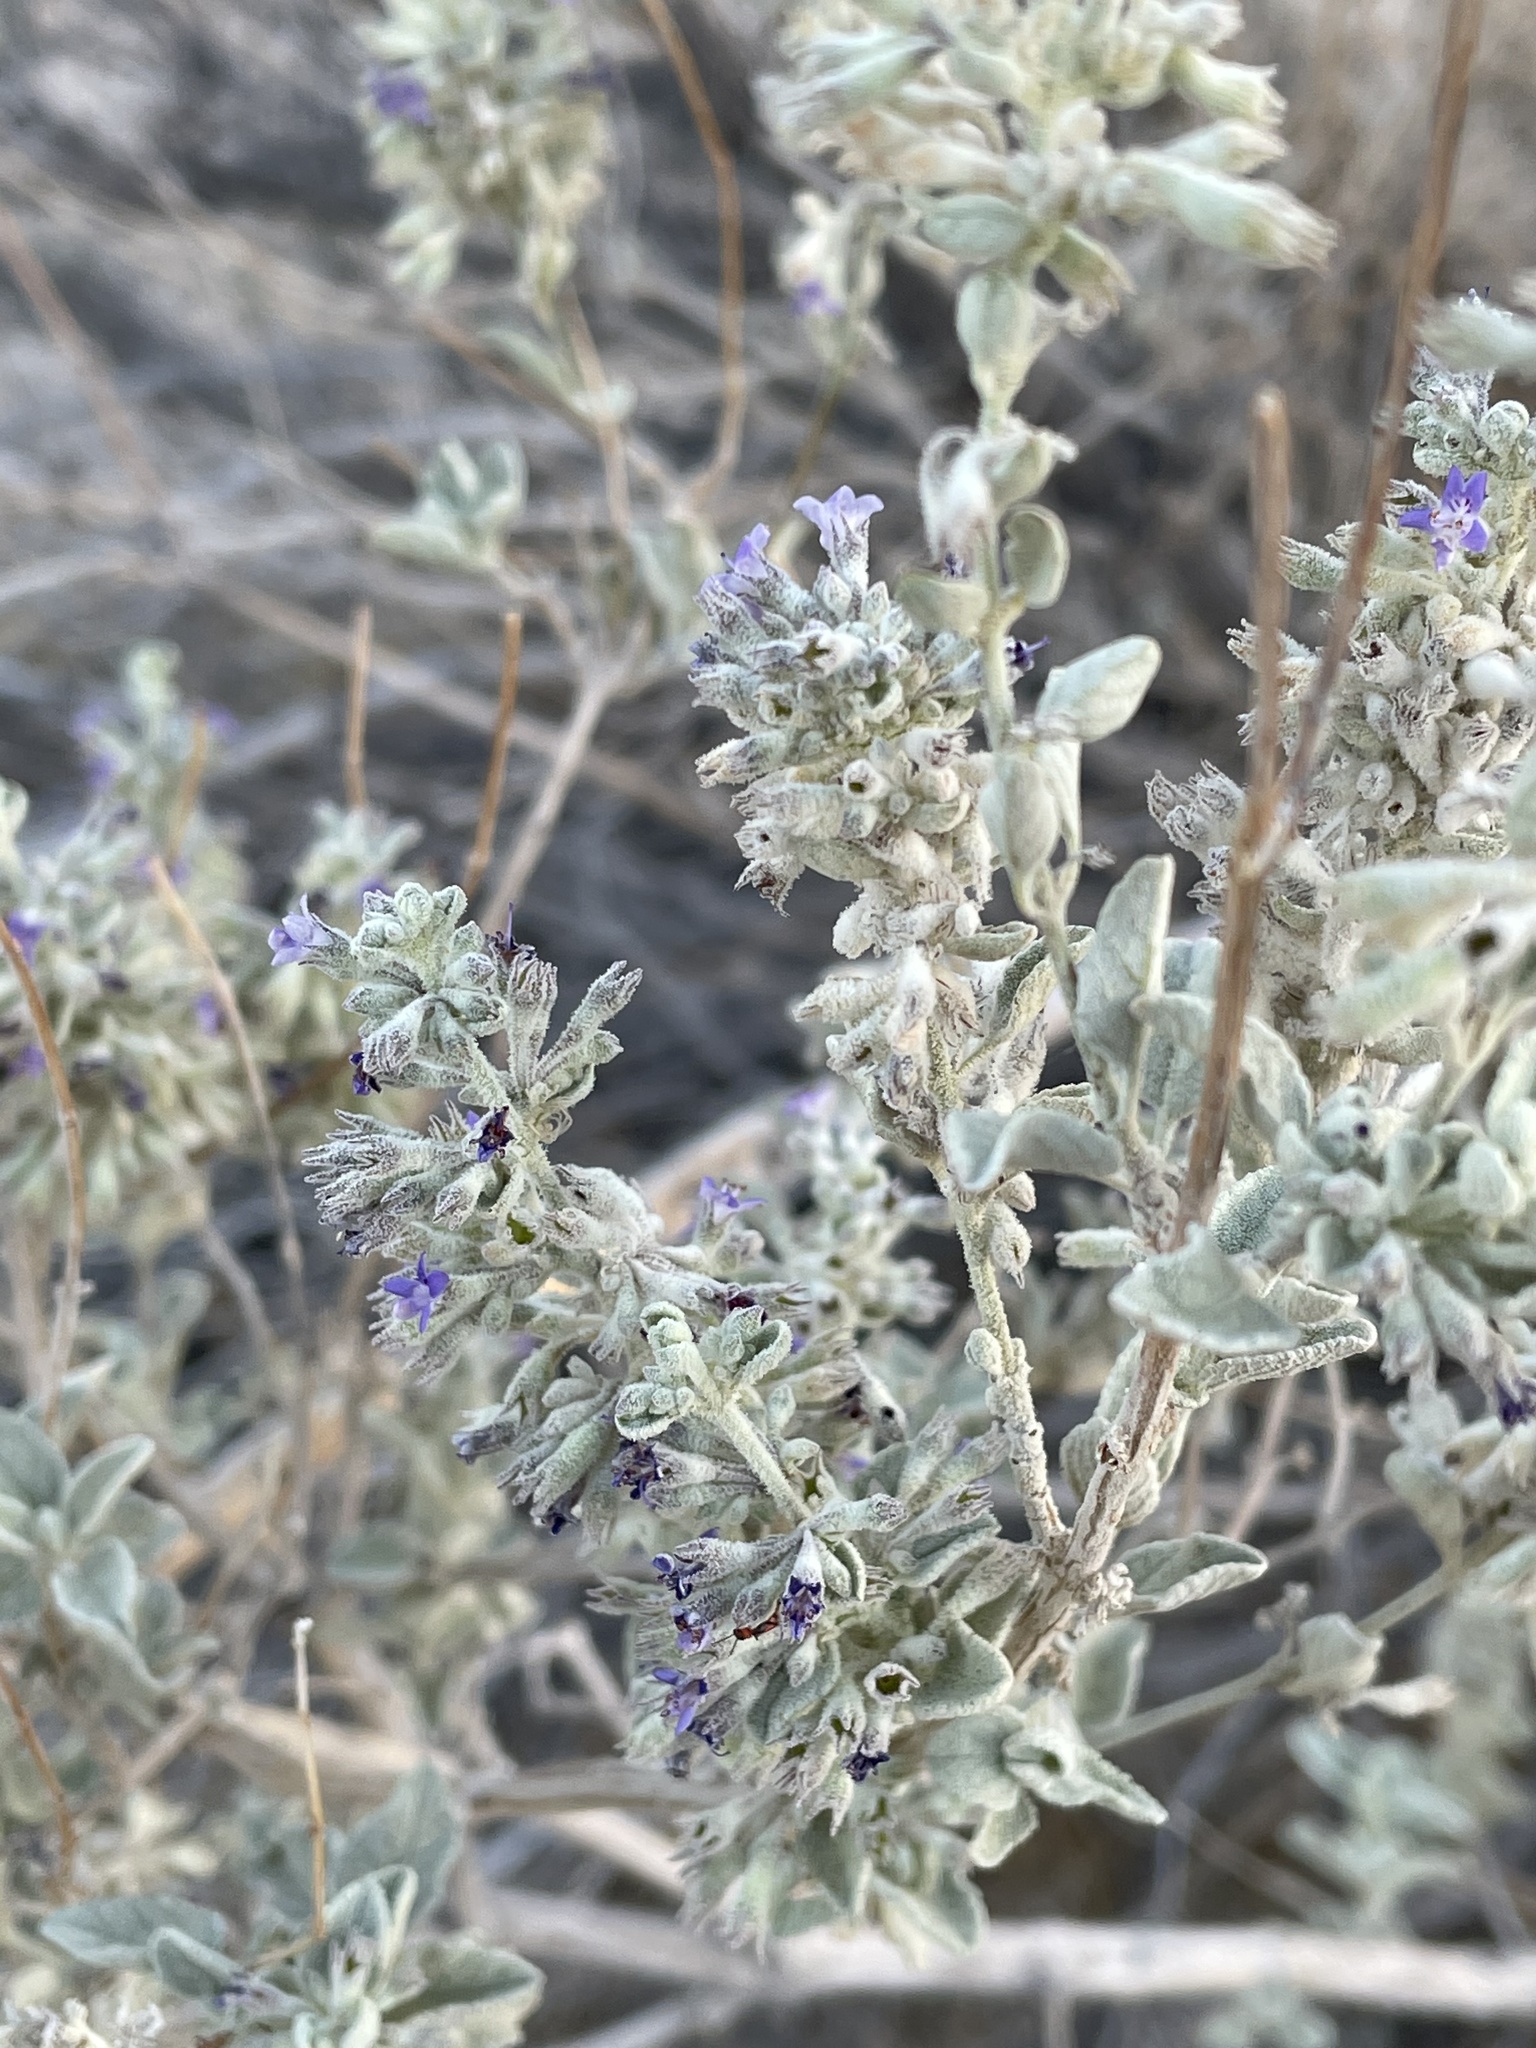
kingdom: Plantae
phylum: Tracheophyta
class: Magnoliopsida
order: Lamiales
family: Lamiaceae
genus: Condea
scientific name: Condea emoryi
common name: Chia
